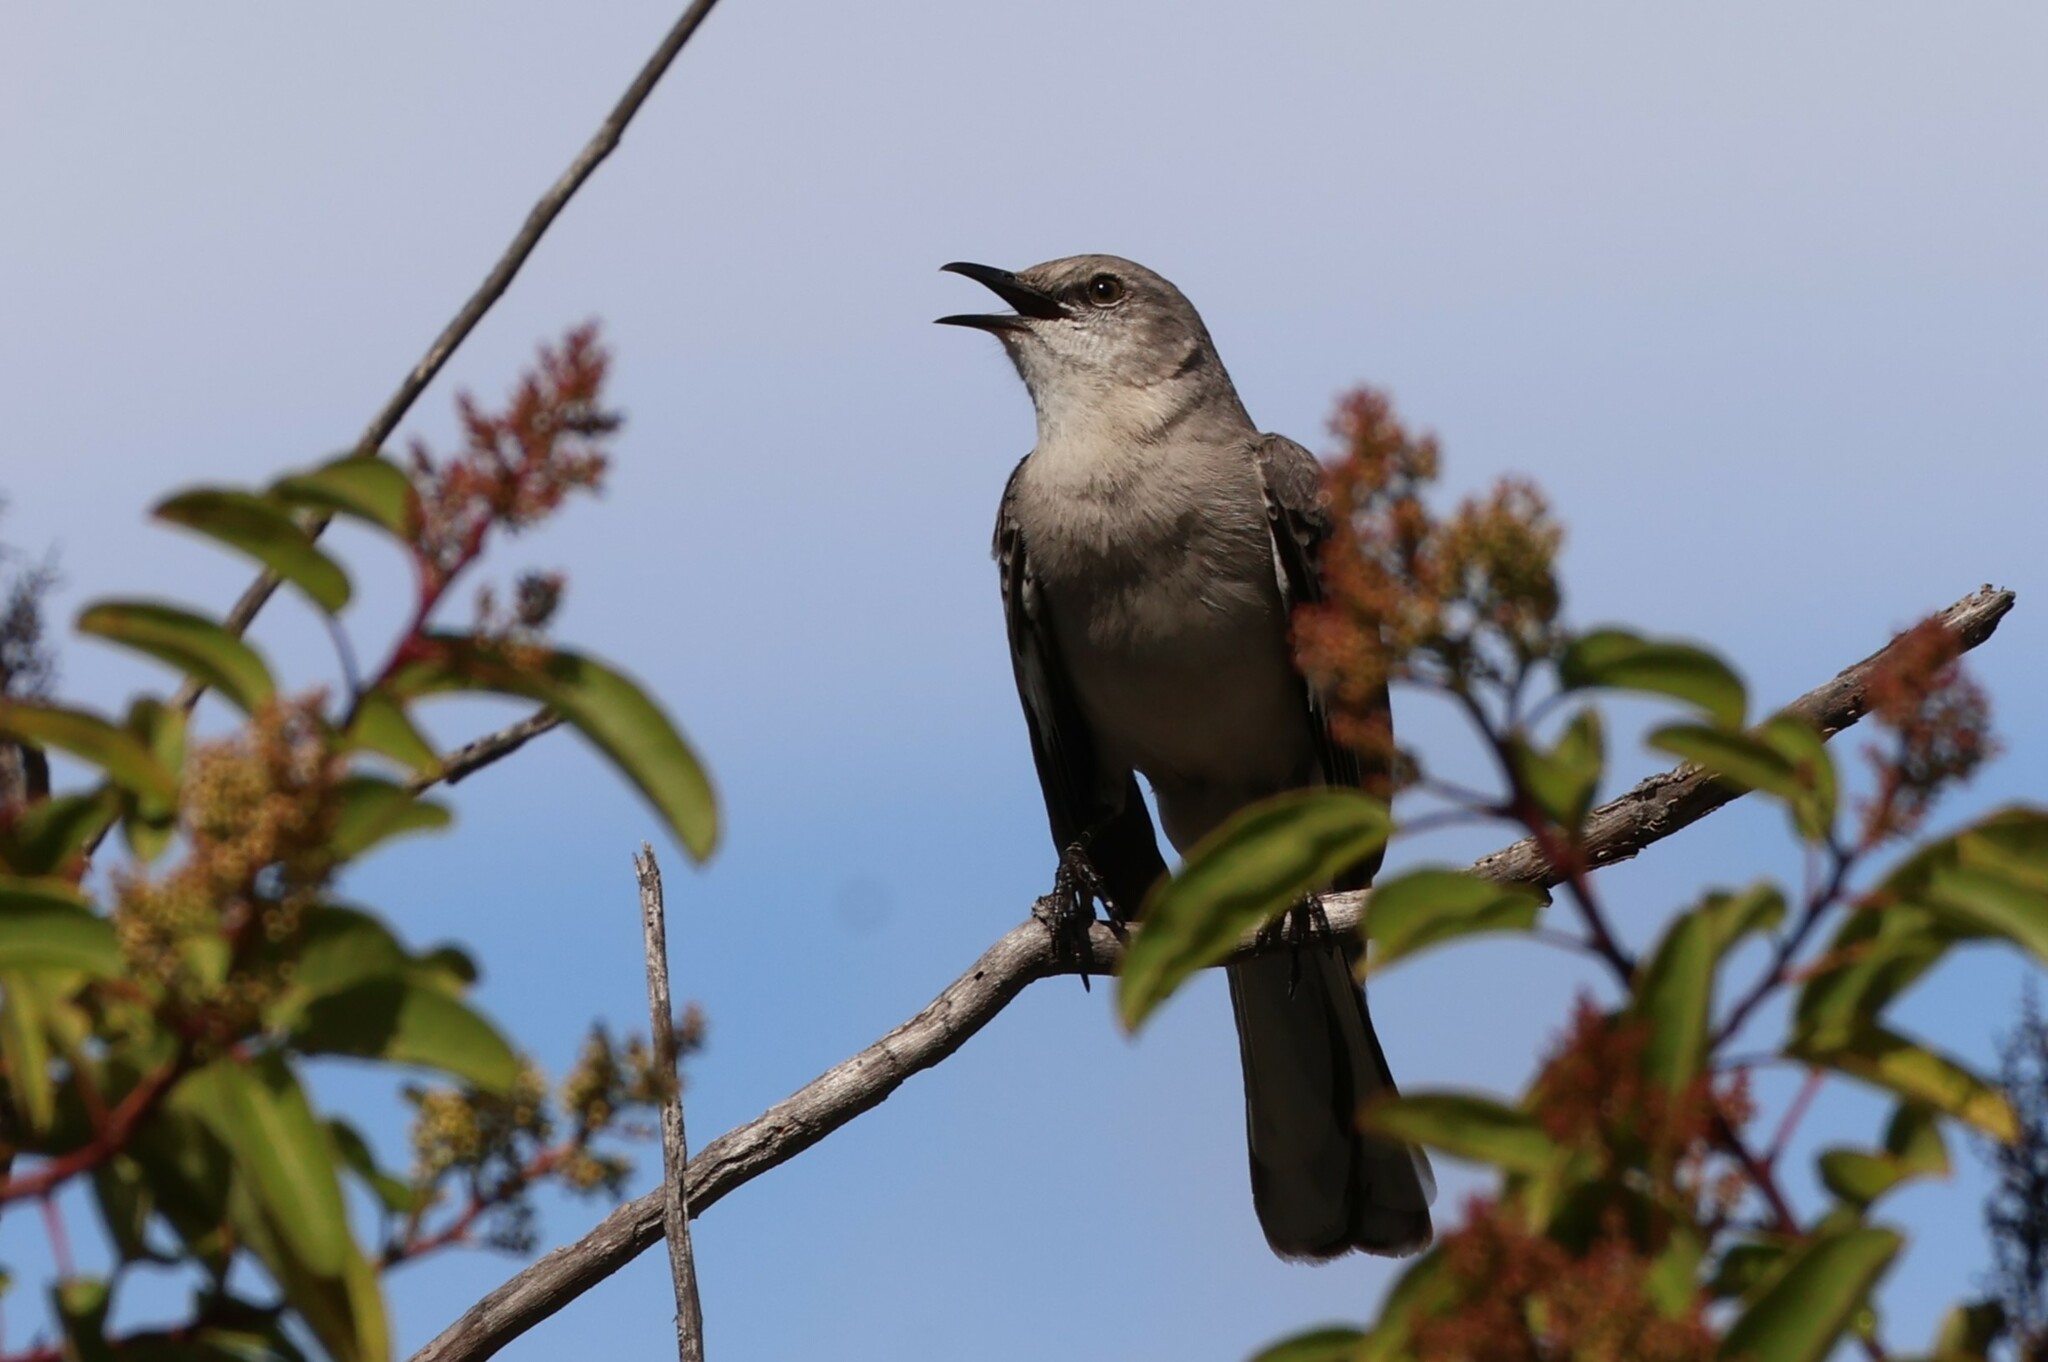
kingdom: Animalia
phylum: Chordata
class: Aves
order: Passeriformes
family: Mimidae
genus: Mimus
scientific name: Mimus polyglottos
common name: Northern mockingbird
